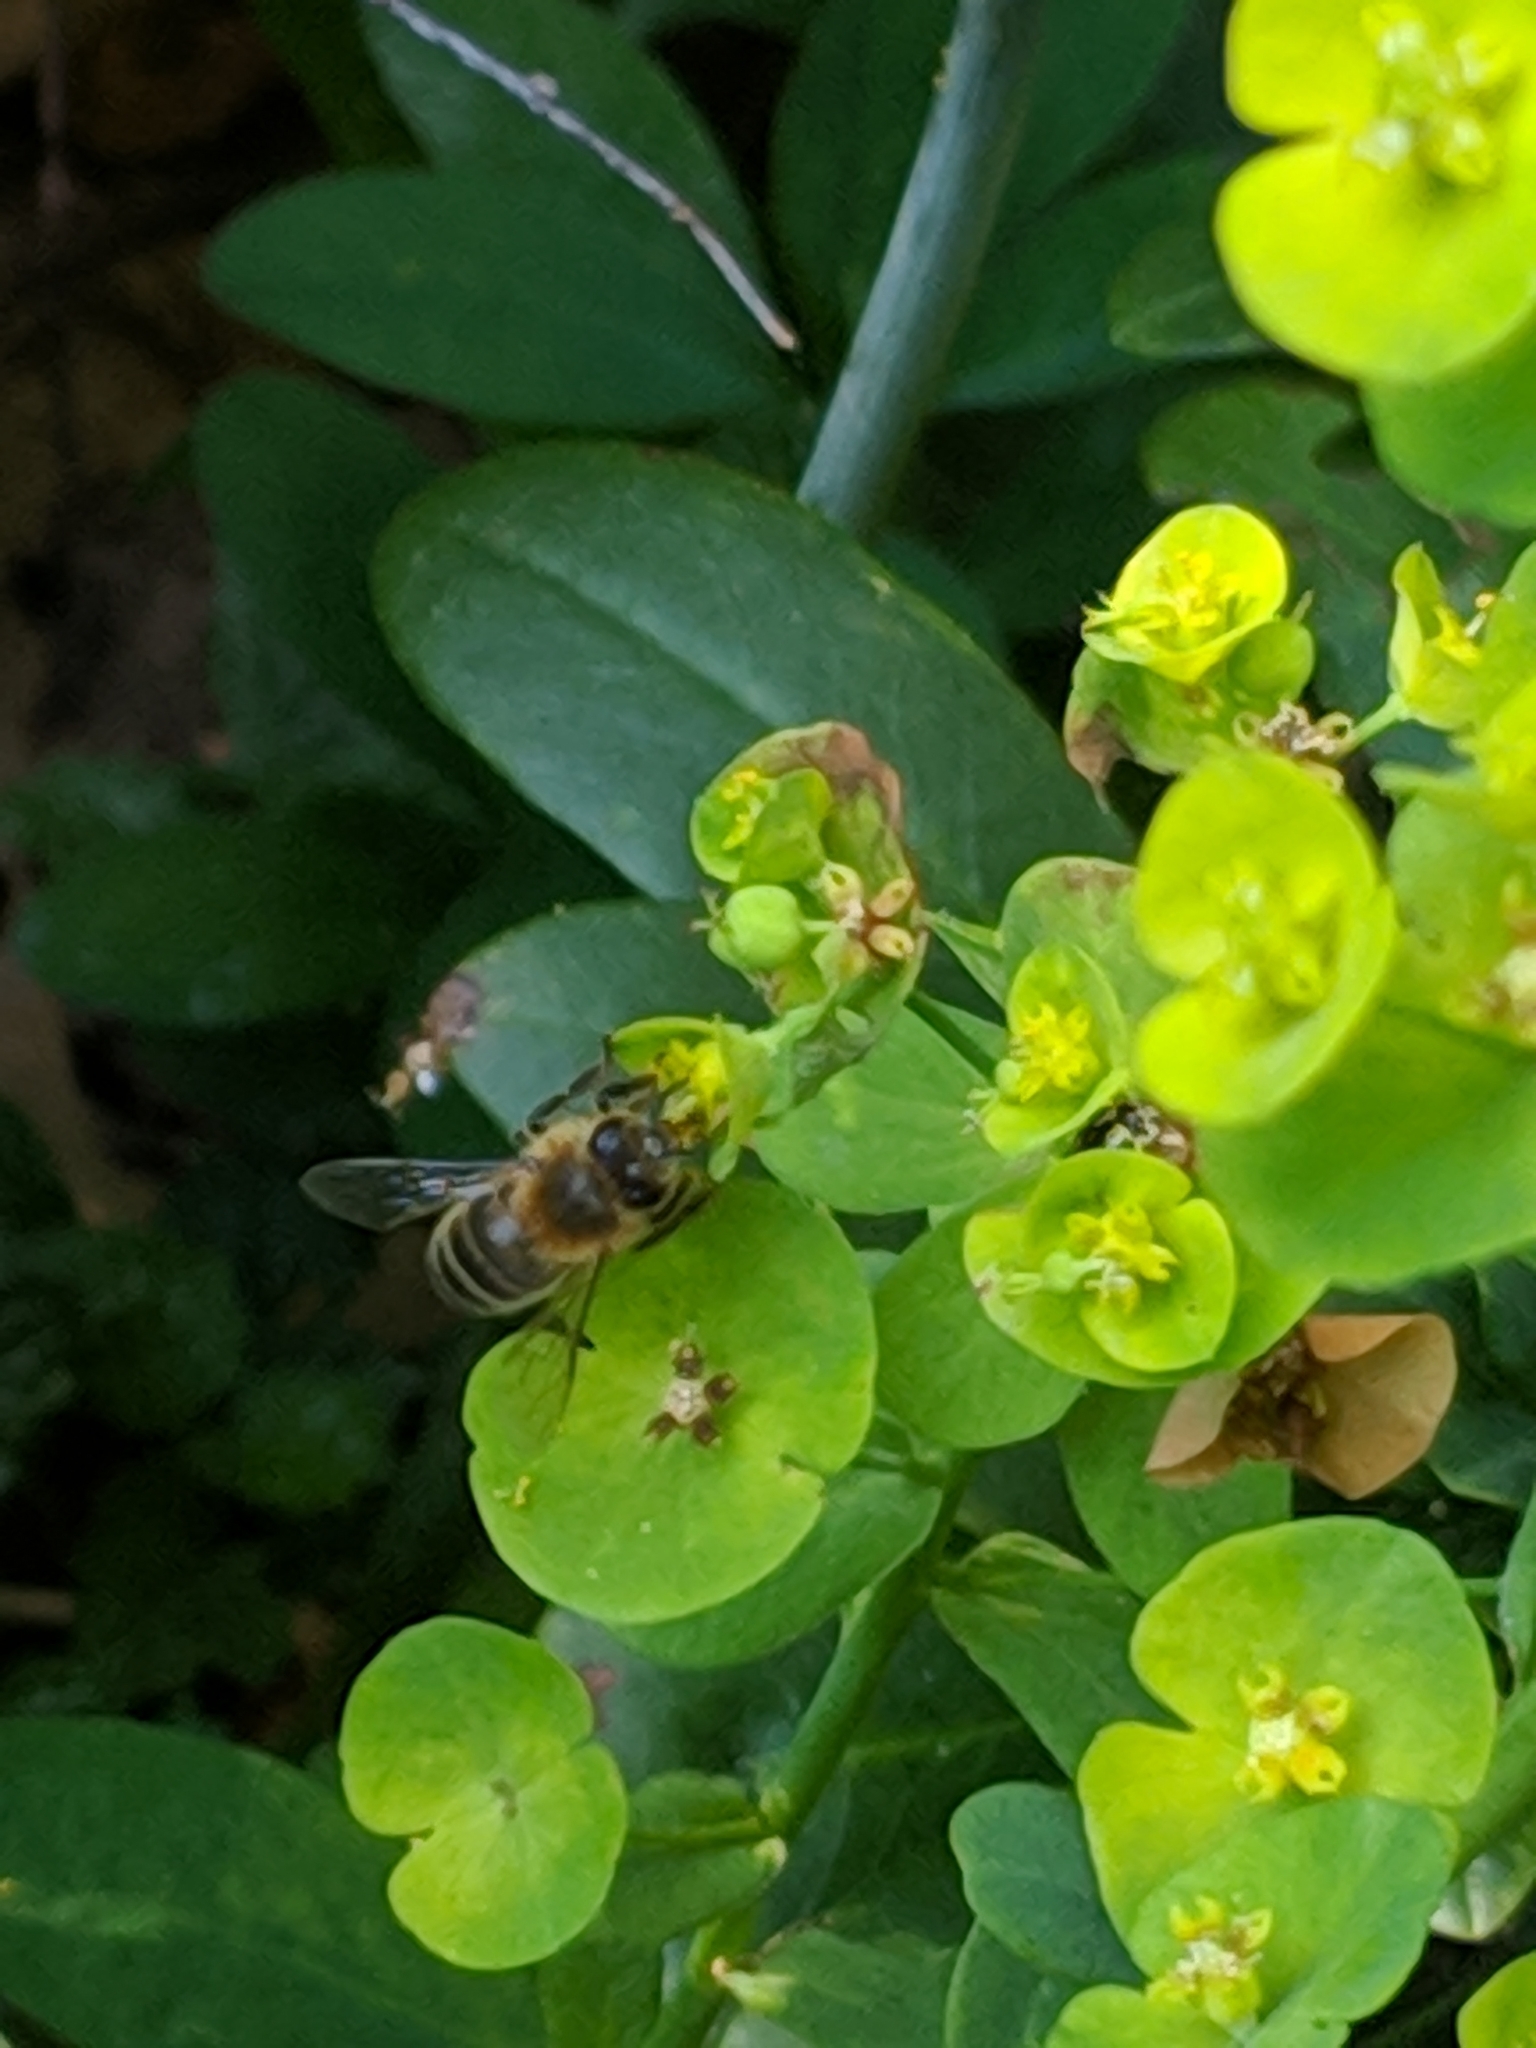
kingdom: Animalia
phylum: Arthropoda
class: Insecta
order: Hymenoptera
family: Apidae
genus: Apis
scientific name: Apis mellifera
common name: Honey bee
